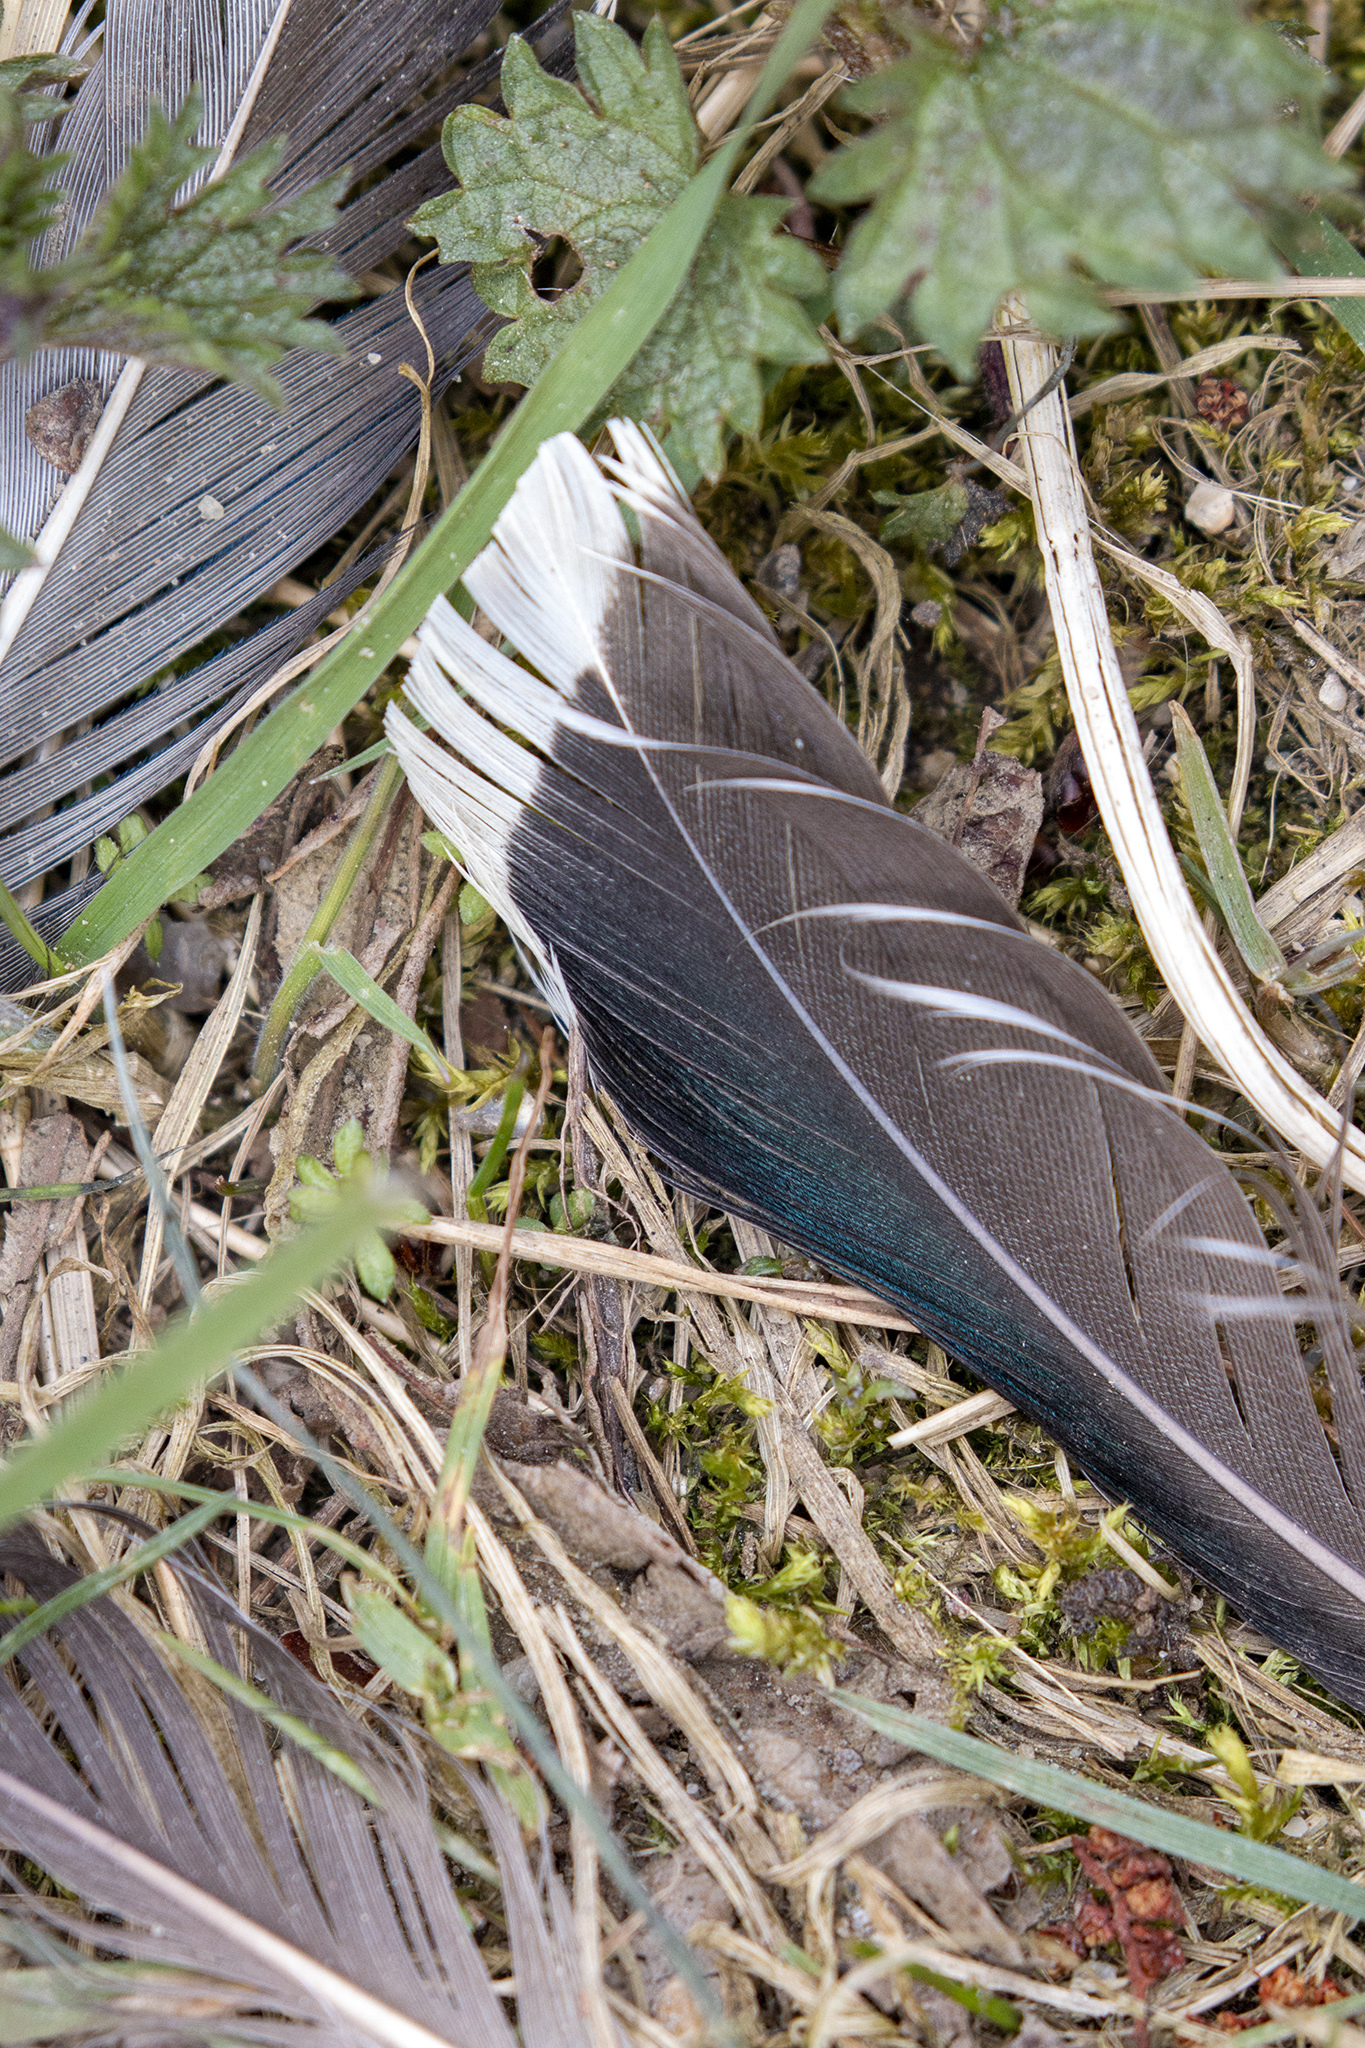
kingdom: Animalia
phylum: Chordata
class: Aves
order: Anseriformes
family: Anatidae
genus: Anas
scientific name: Anas platyrhynchos
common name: Mallard
